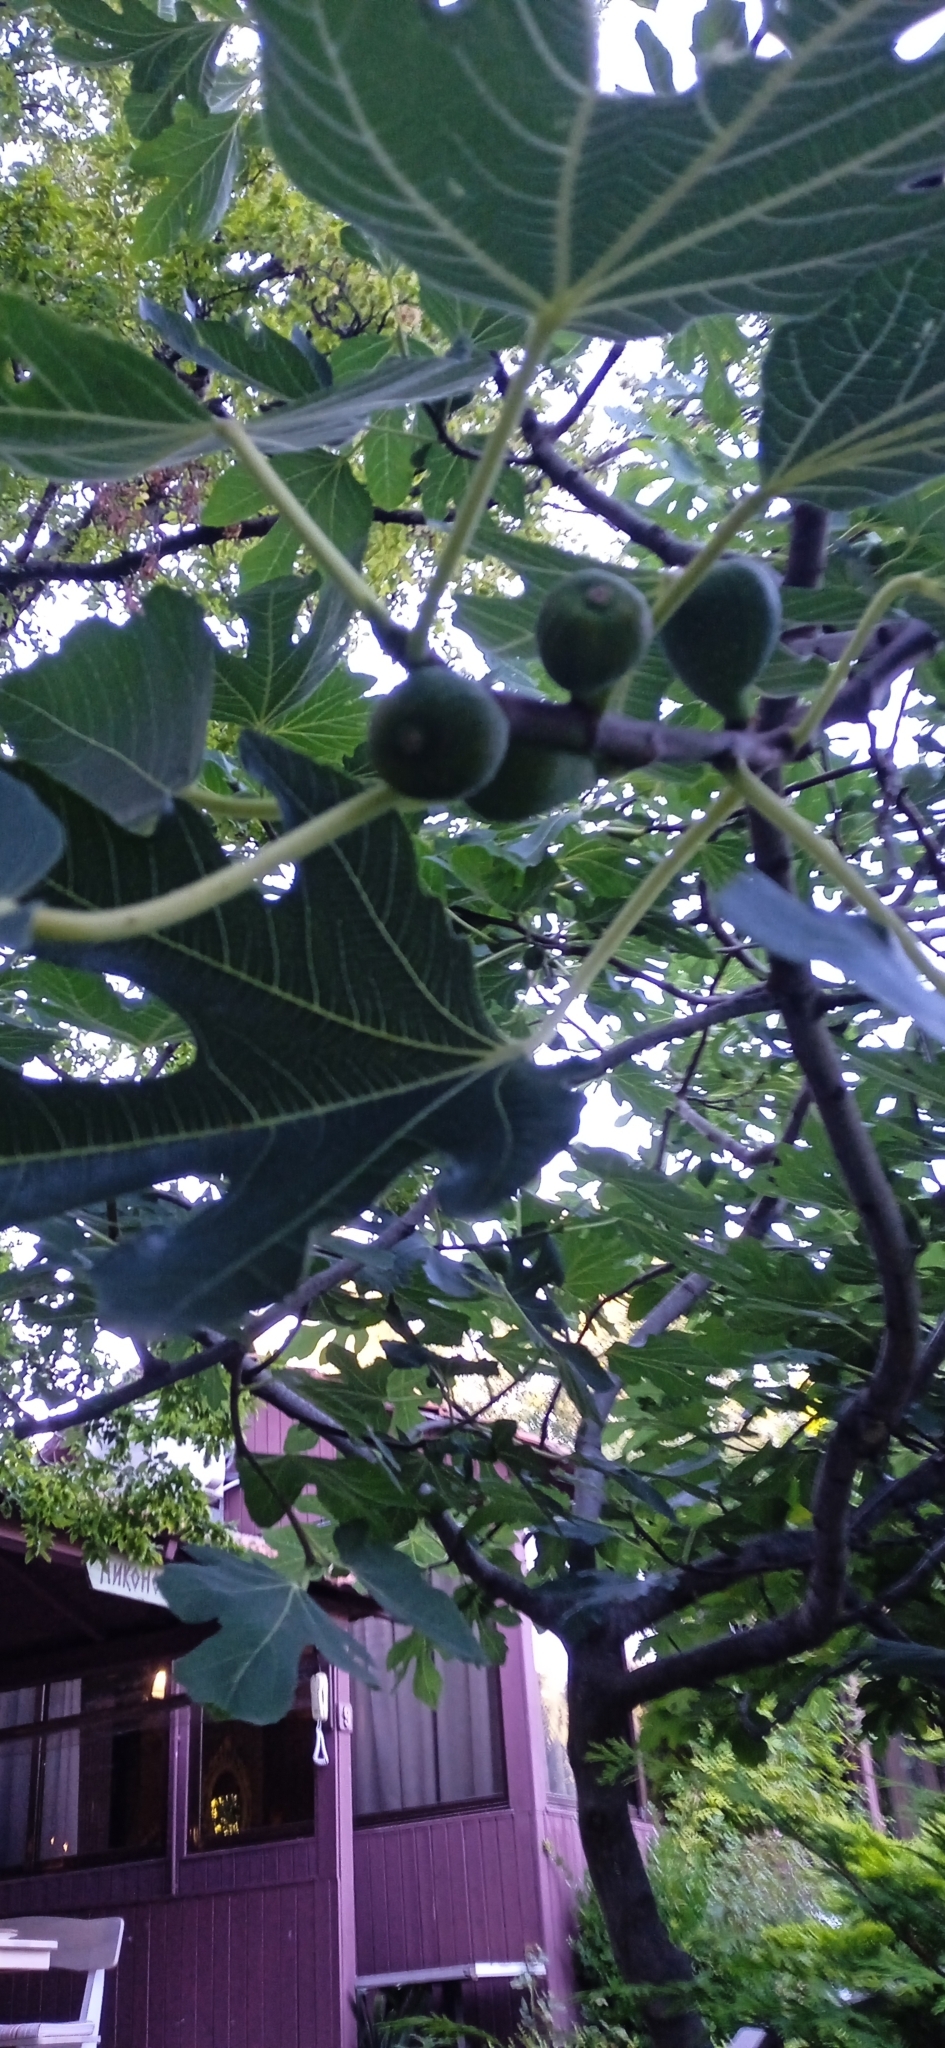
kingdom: Plantae
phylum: Tracheophyta
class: Magnoliopsida
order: Rosales
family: Moraceae
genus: Ficus
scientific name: Ficus carica
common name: Fig
